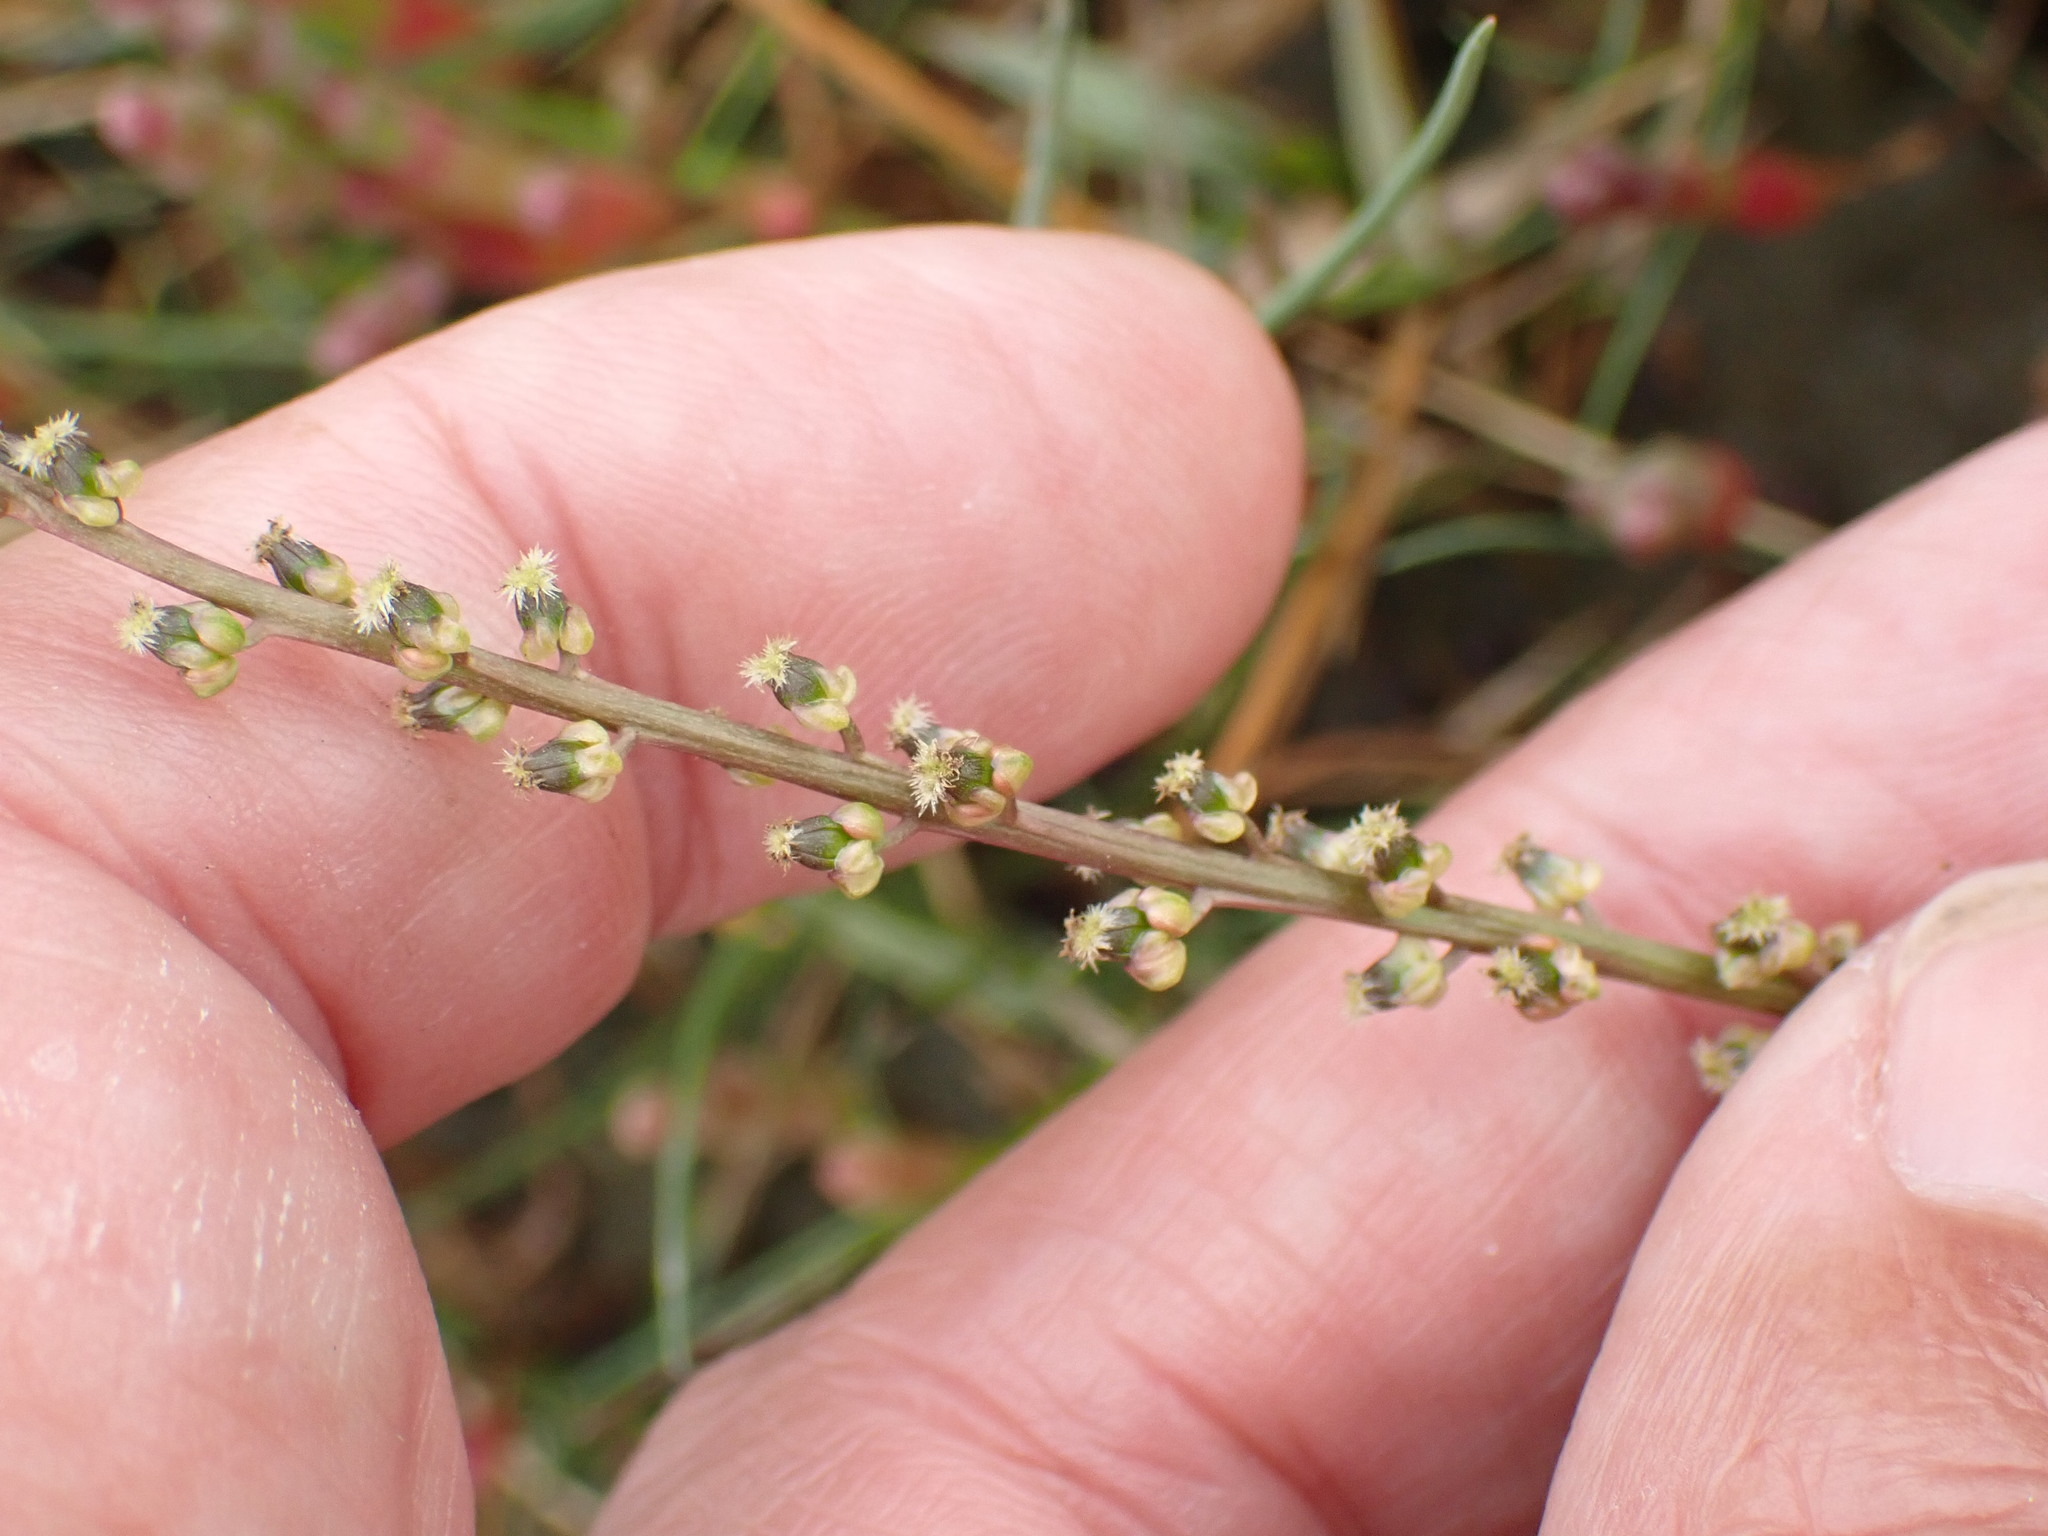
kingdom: Plantae
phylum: Tracheophyta
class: Liliopsida
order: Alismatales
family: Juncaginaceae
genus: Triglochin
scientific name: Triglochin maritima
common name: Sea arrowgrass
